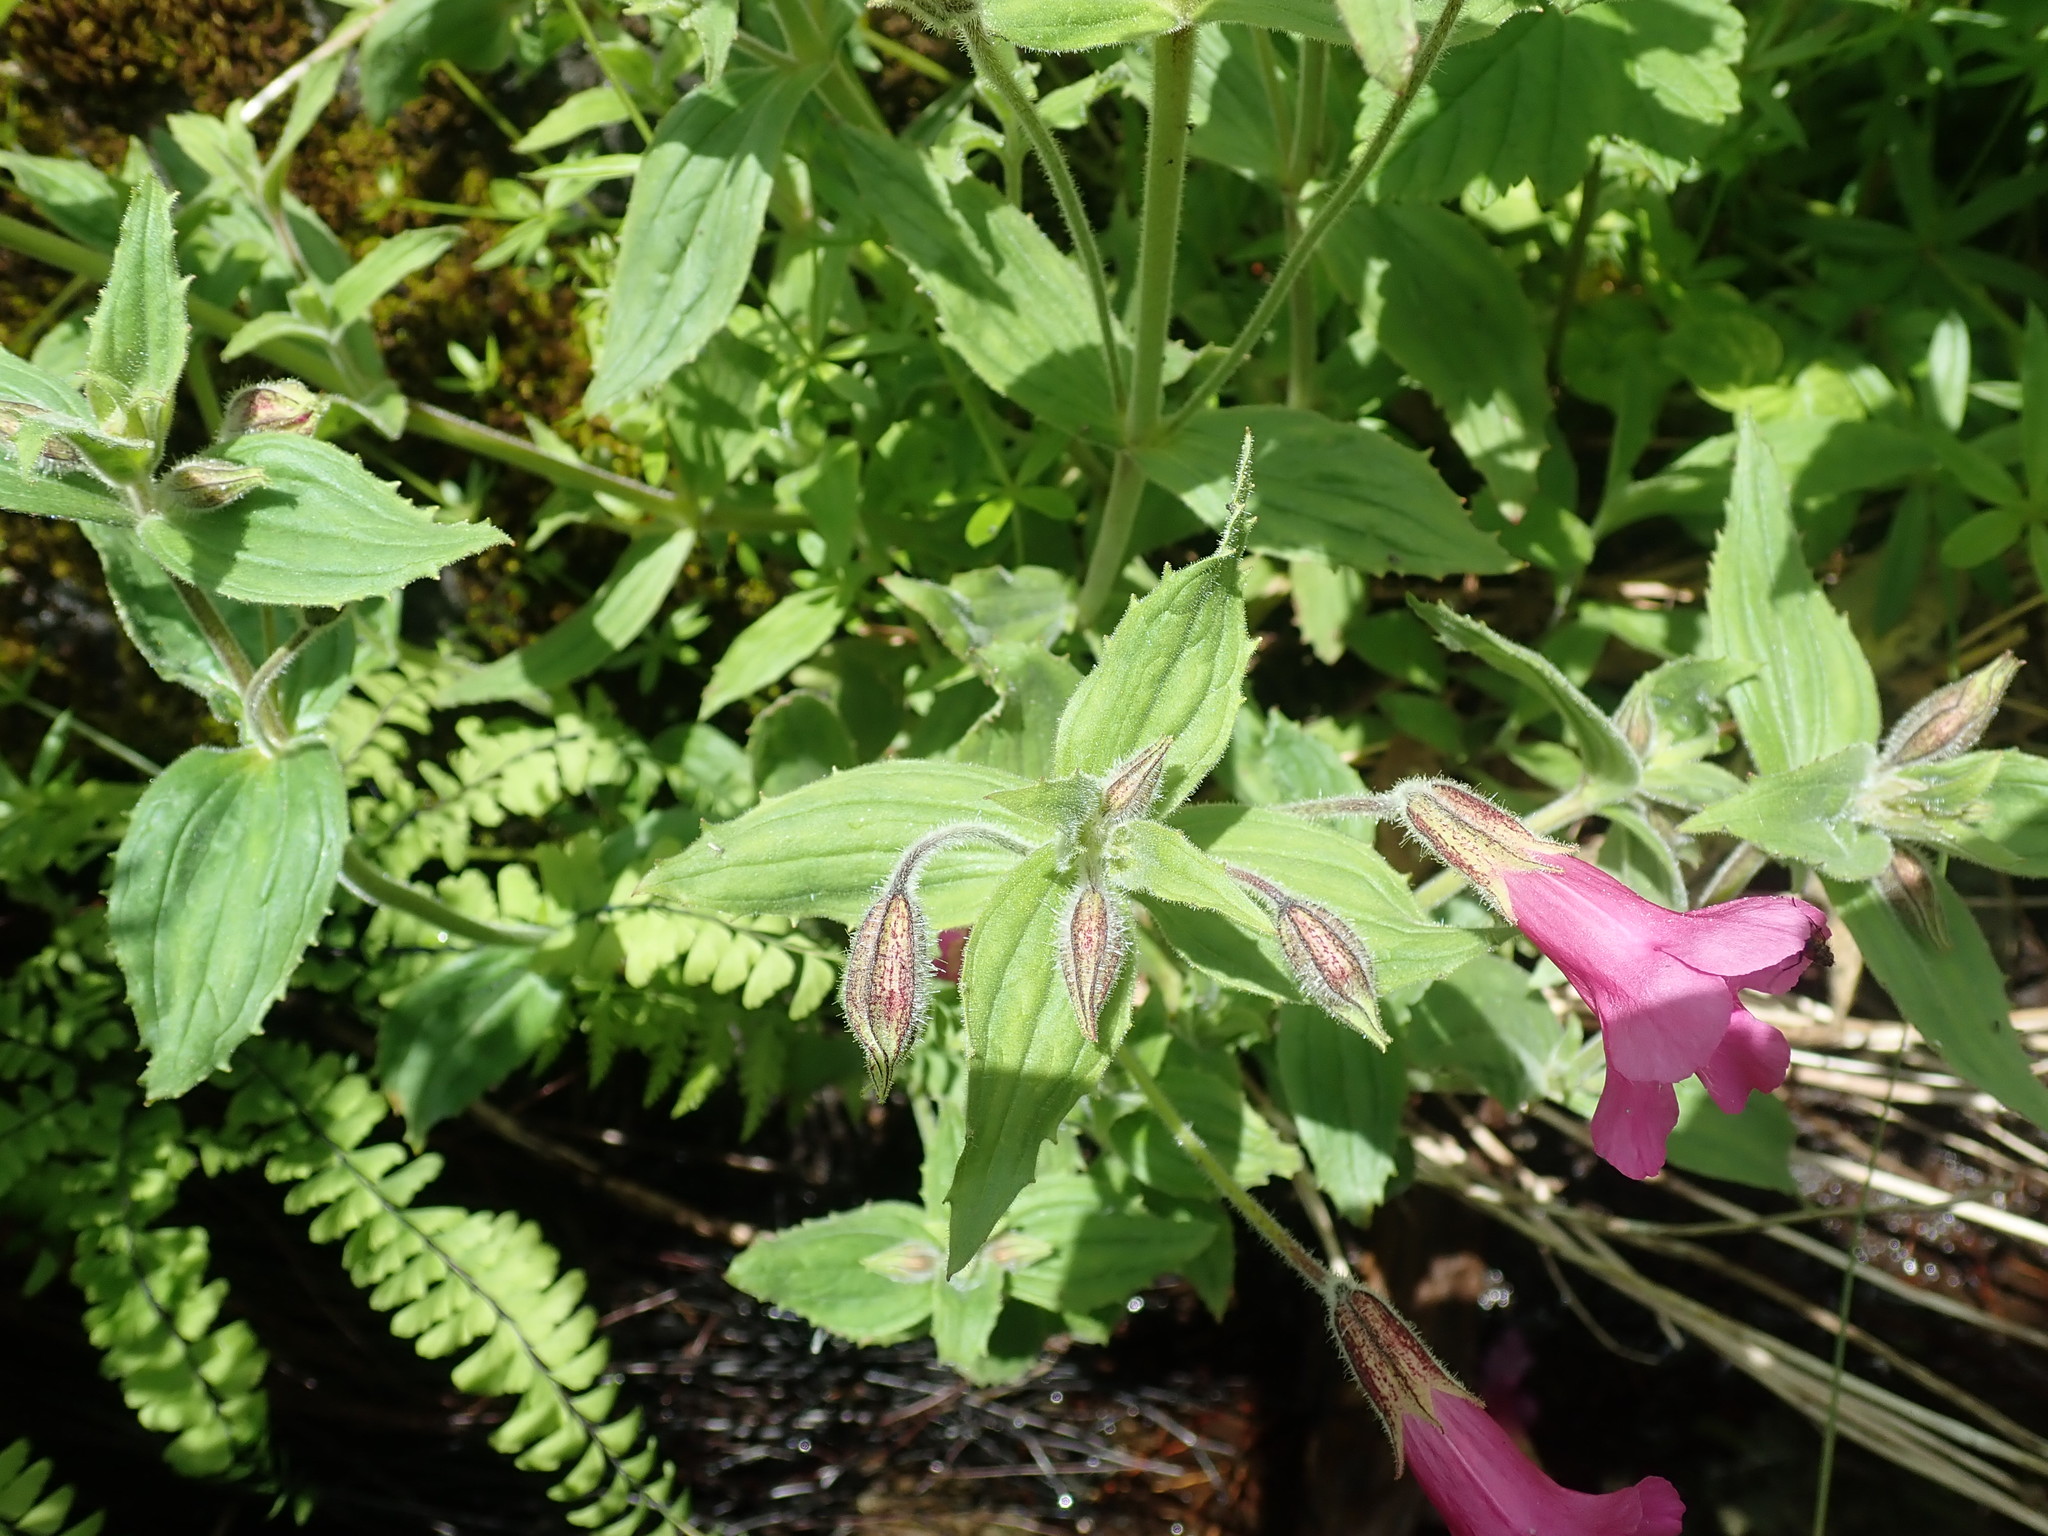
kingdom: Plantae
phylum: Tracheophyta
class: Magnoliopsida
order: Lamiales
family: Phrymaceae
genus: Erythranthe
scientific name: Erythranthe lewisii
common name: Lewis's monkey-flower
